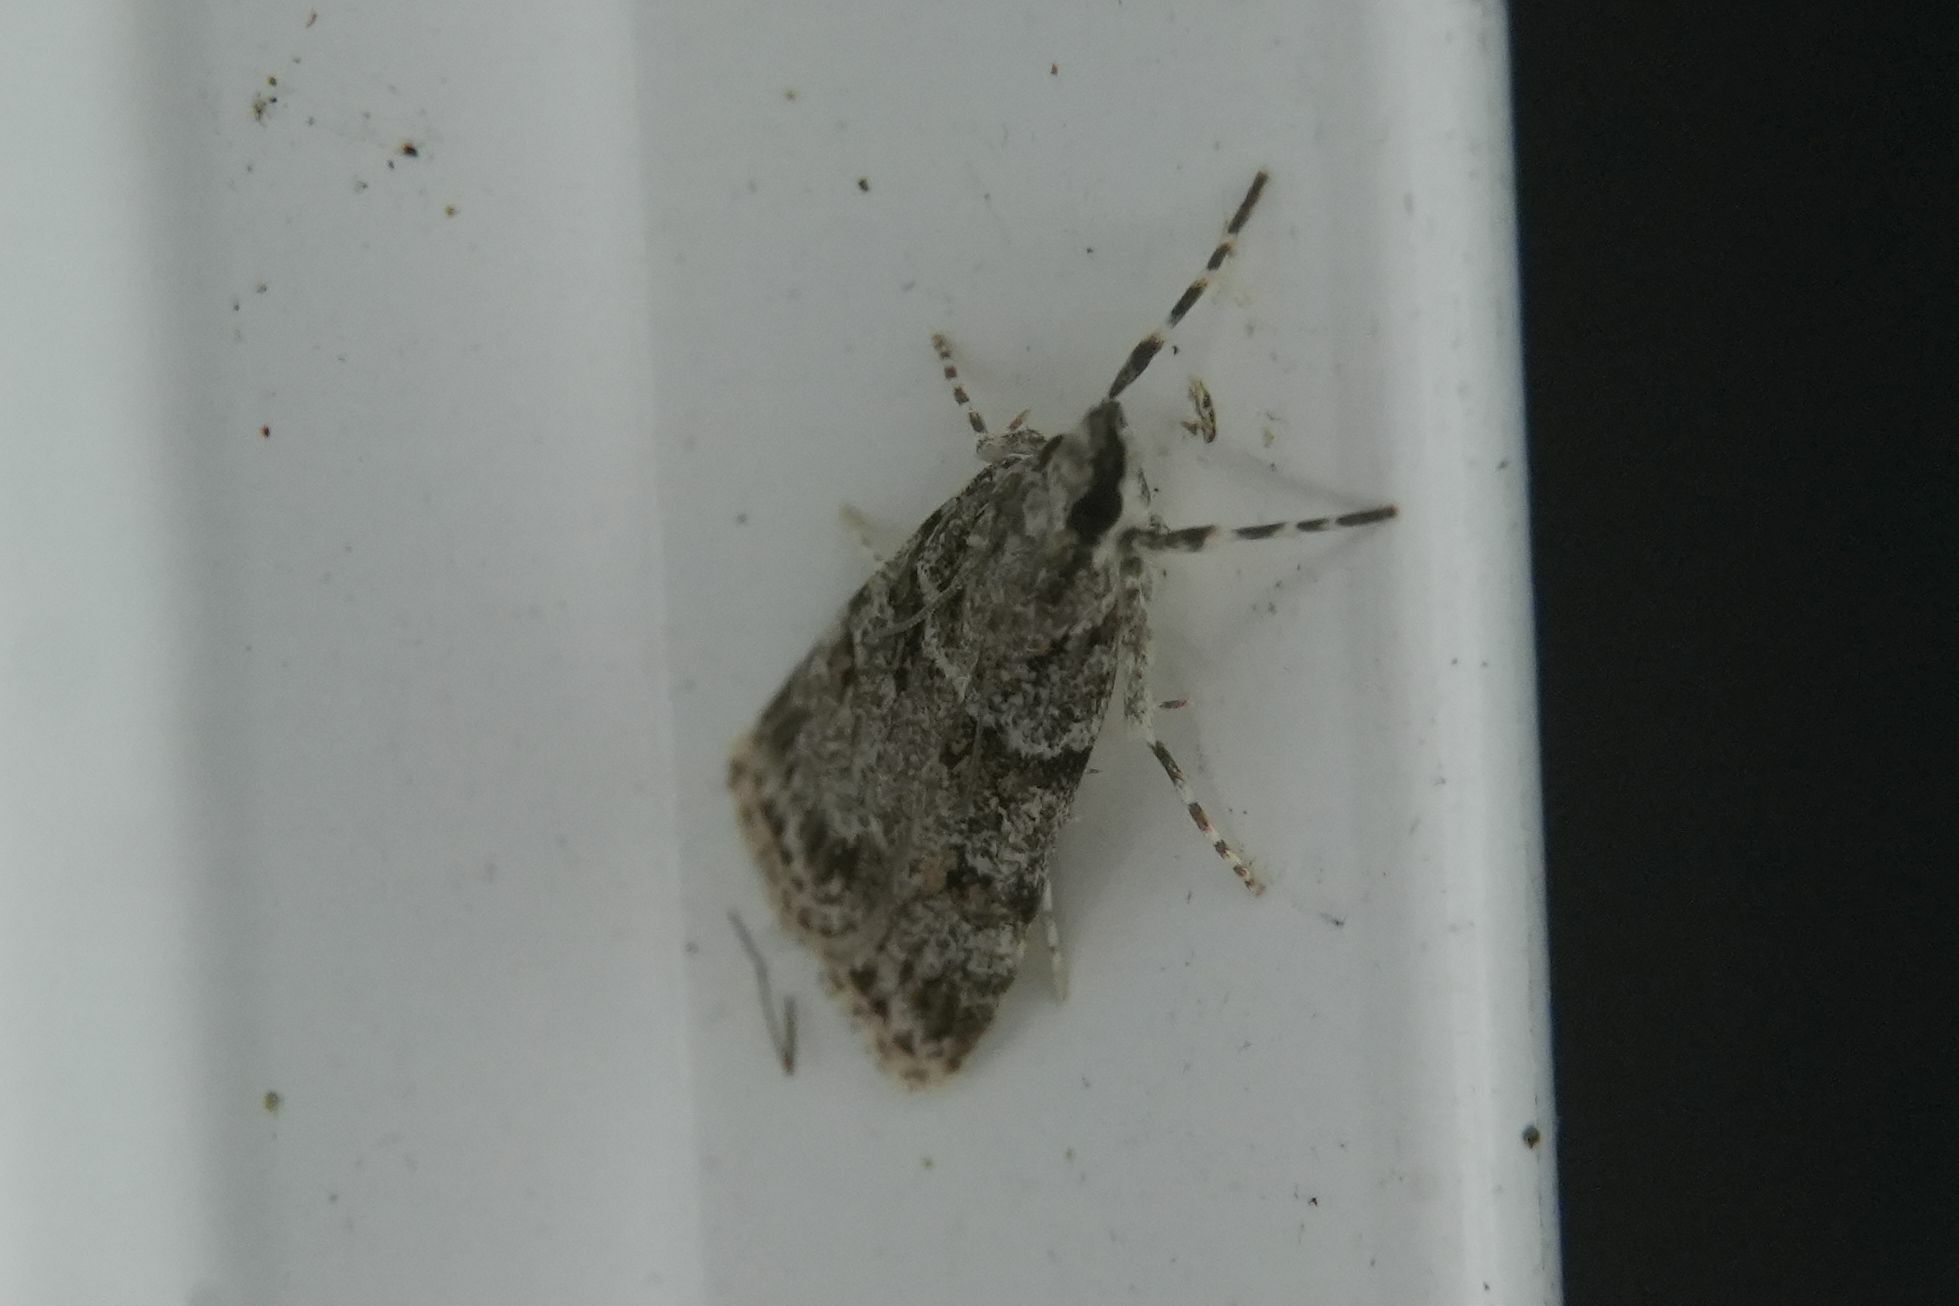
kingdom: Animalia
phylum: Arthropoda
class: Insecta
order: Lepidoptera
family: Crambidae
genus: Scoparia
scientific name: Scoparia biplagialis
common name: Double-striped scoparia moth
